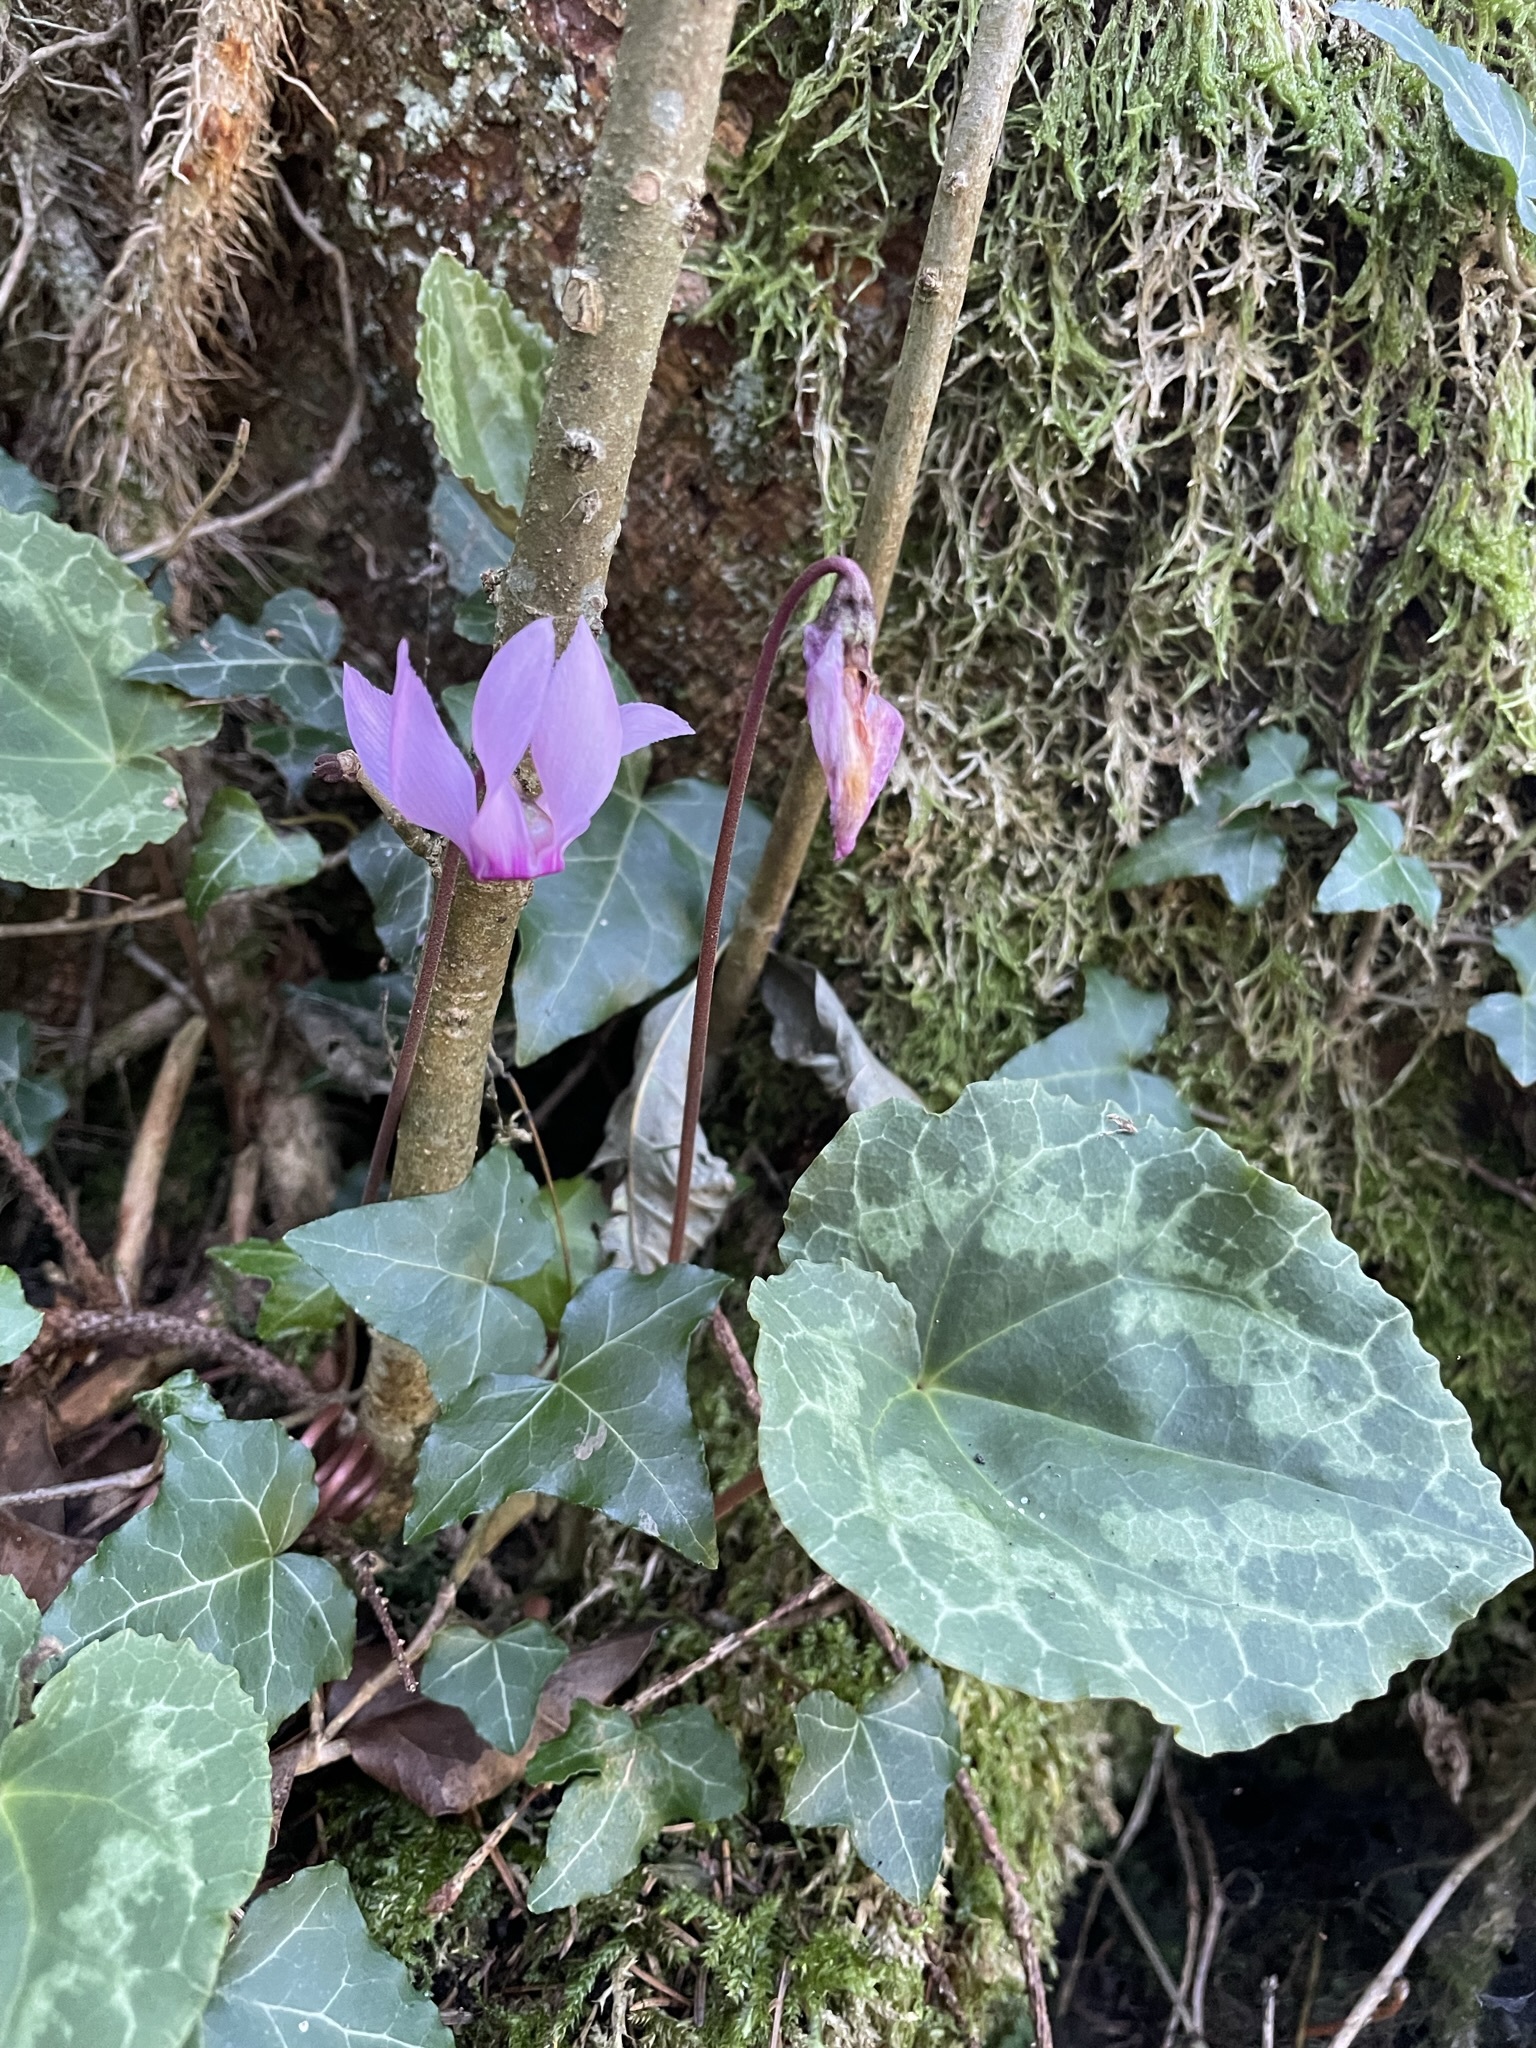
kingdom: Plantae
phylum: Tracheophyta
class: Magnoliopsida
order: Ericales
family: Primulaceae
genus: Cyclamen
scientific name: Cyclamen purpurascens
